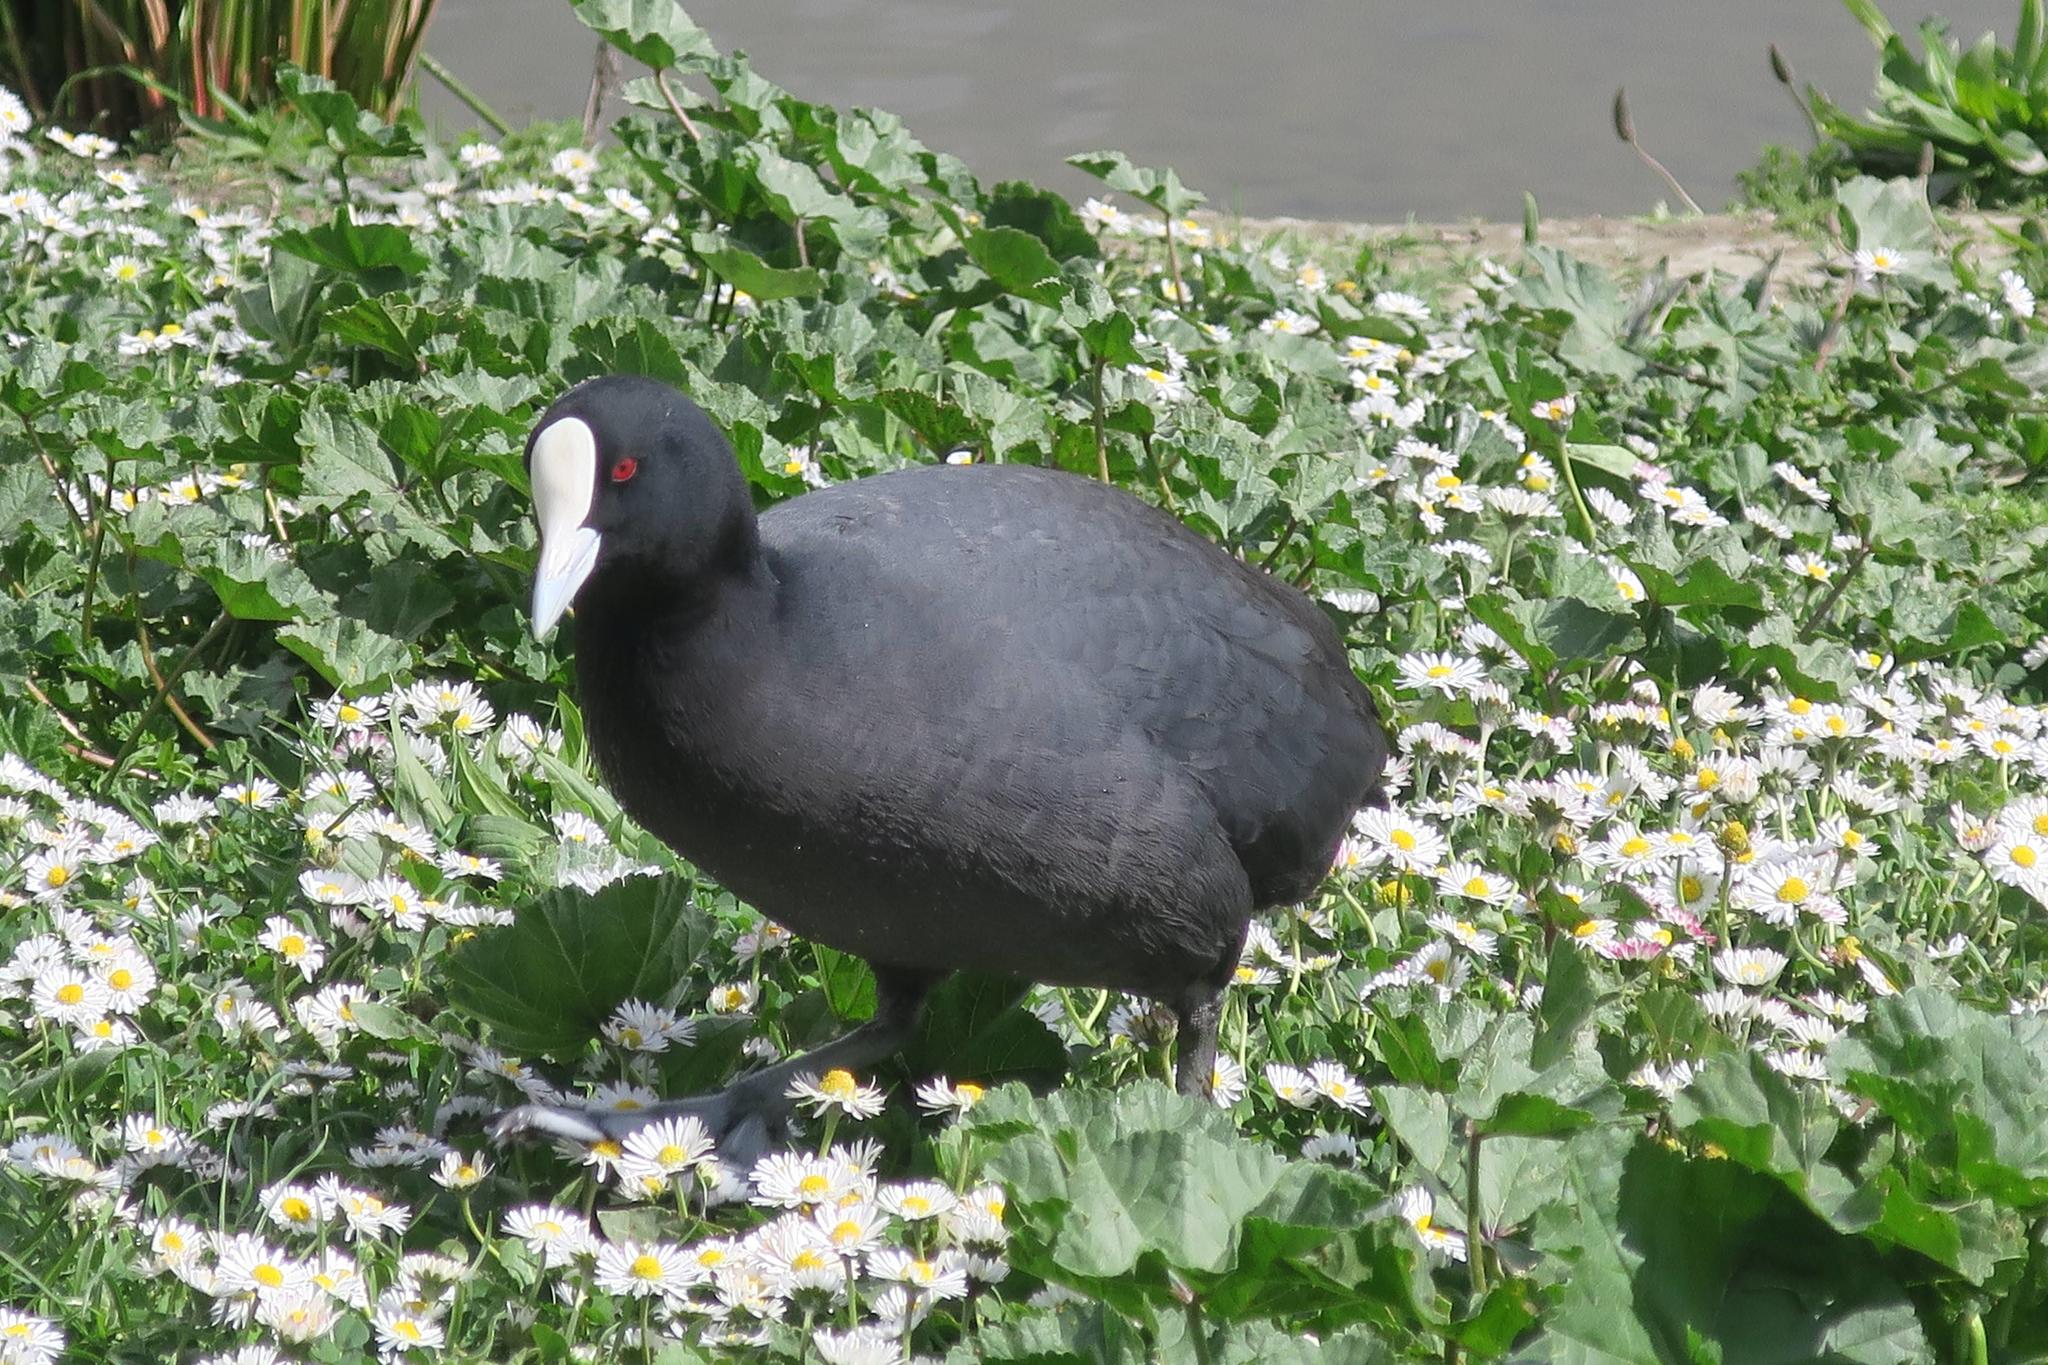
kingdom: Animalia
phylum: Chordata
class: Aves
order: Gruiformes
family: Rallidae
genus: Fulica
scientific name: Fulica atra
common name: Eurasian coot
